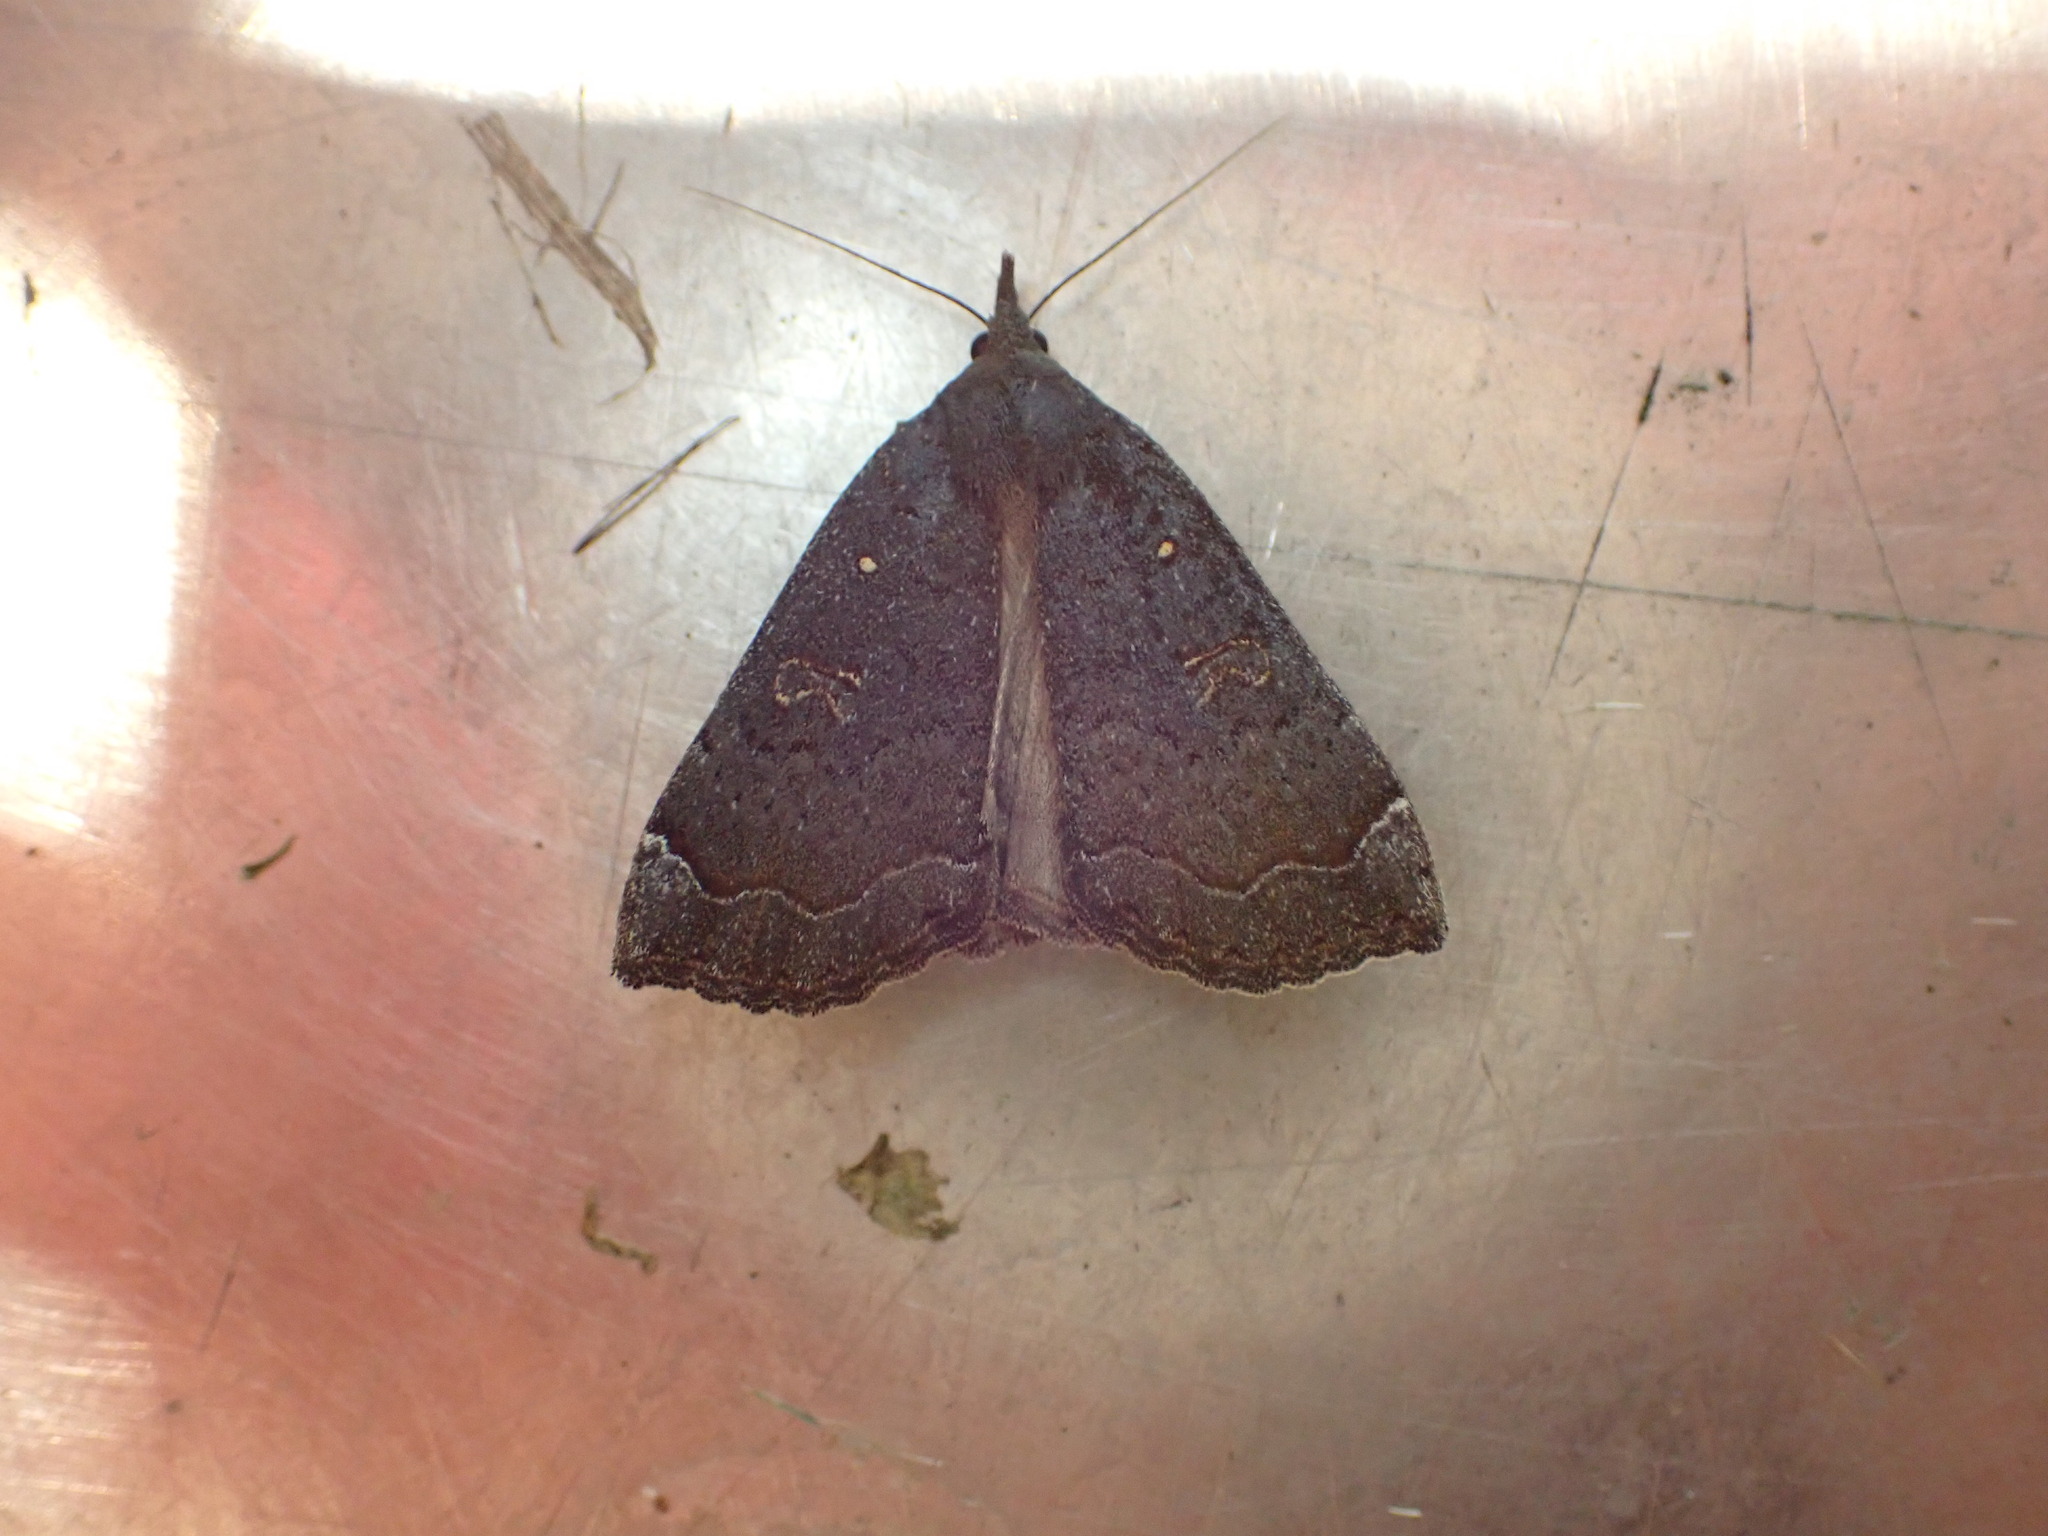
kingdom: Animalia
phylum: Arthropoda
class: Insecta
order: Lepidoptera
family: Erebidae
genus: Rhapsa
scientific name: Rhapsa scotosialis
